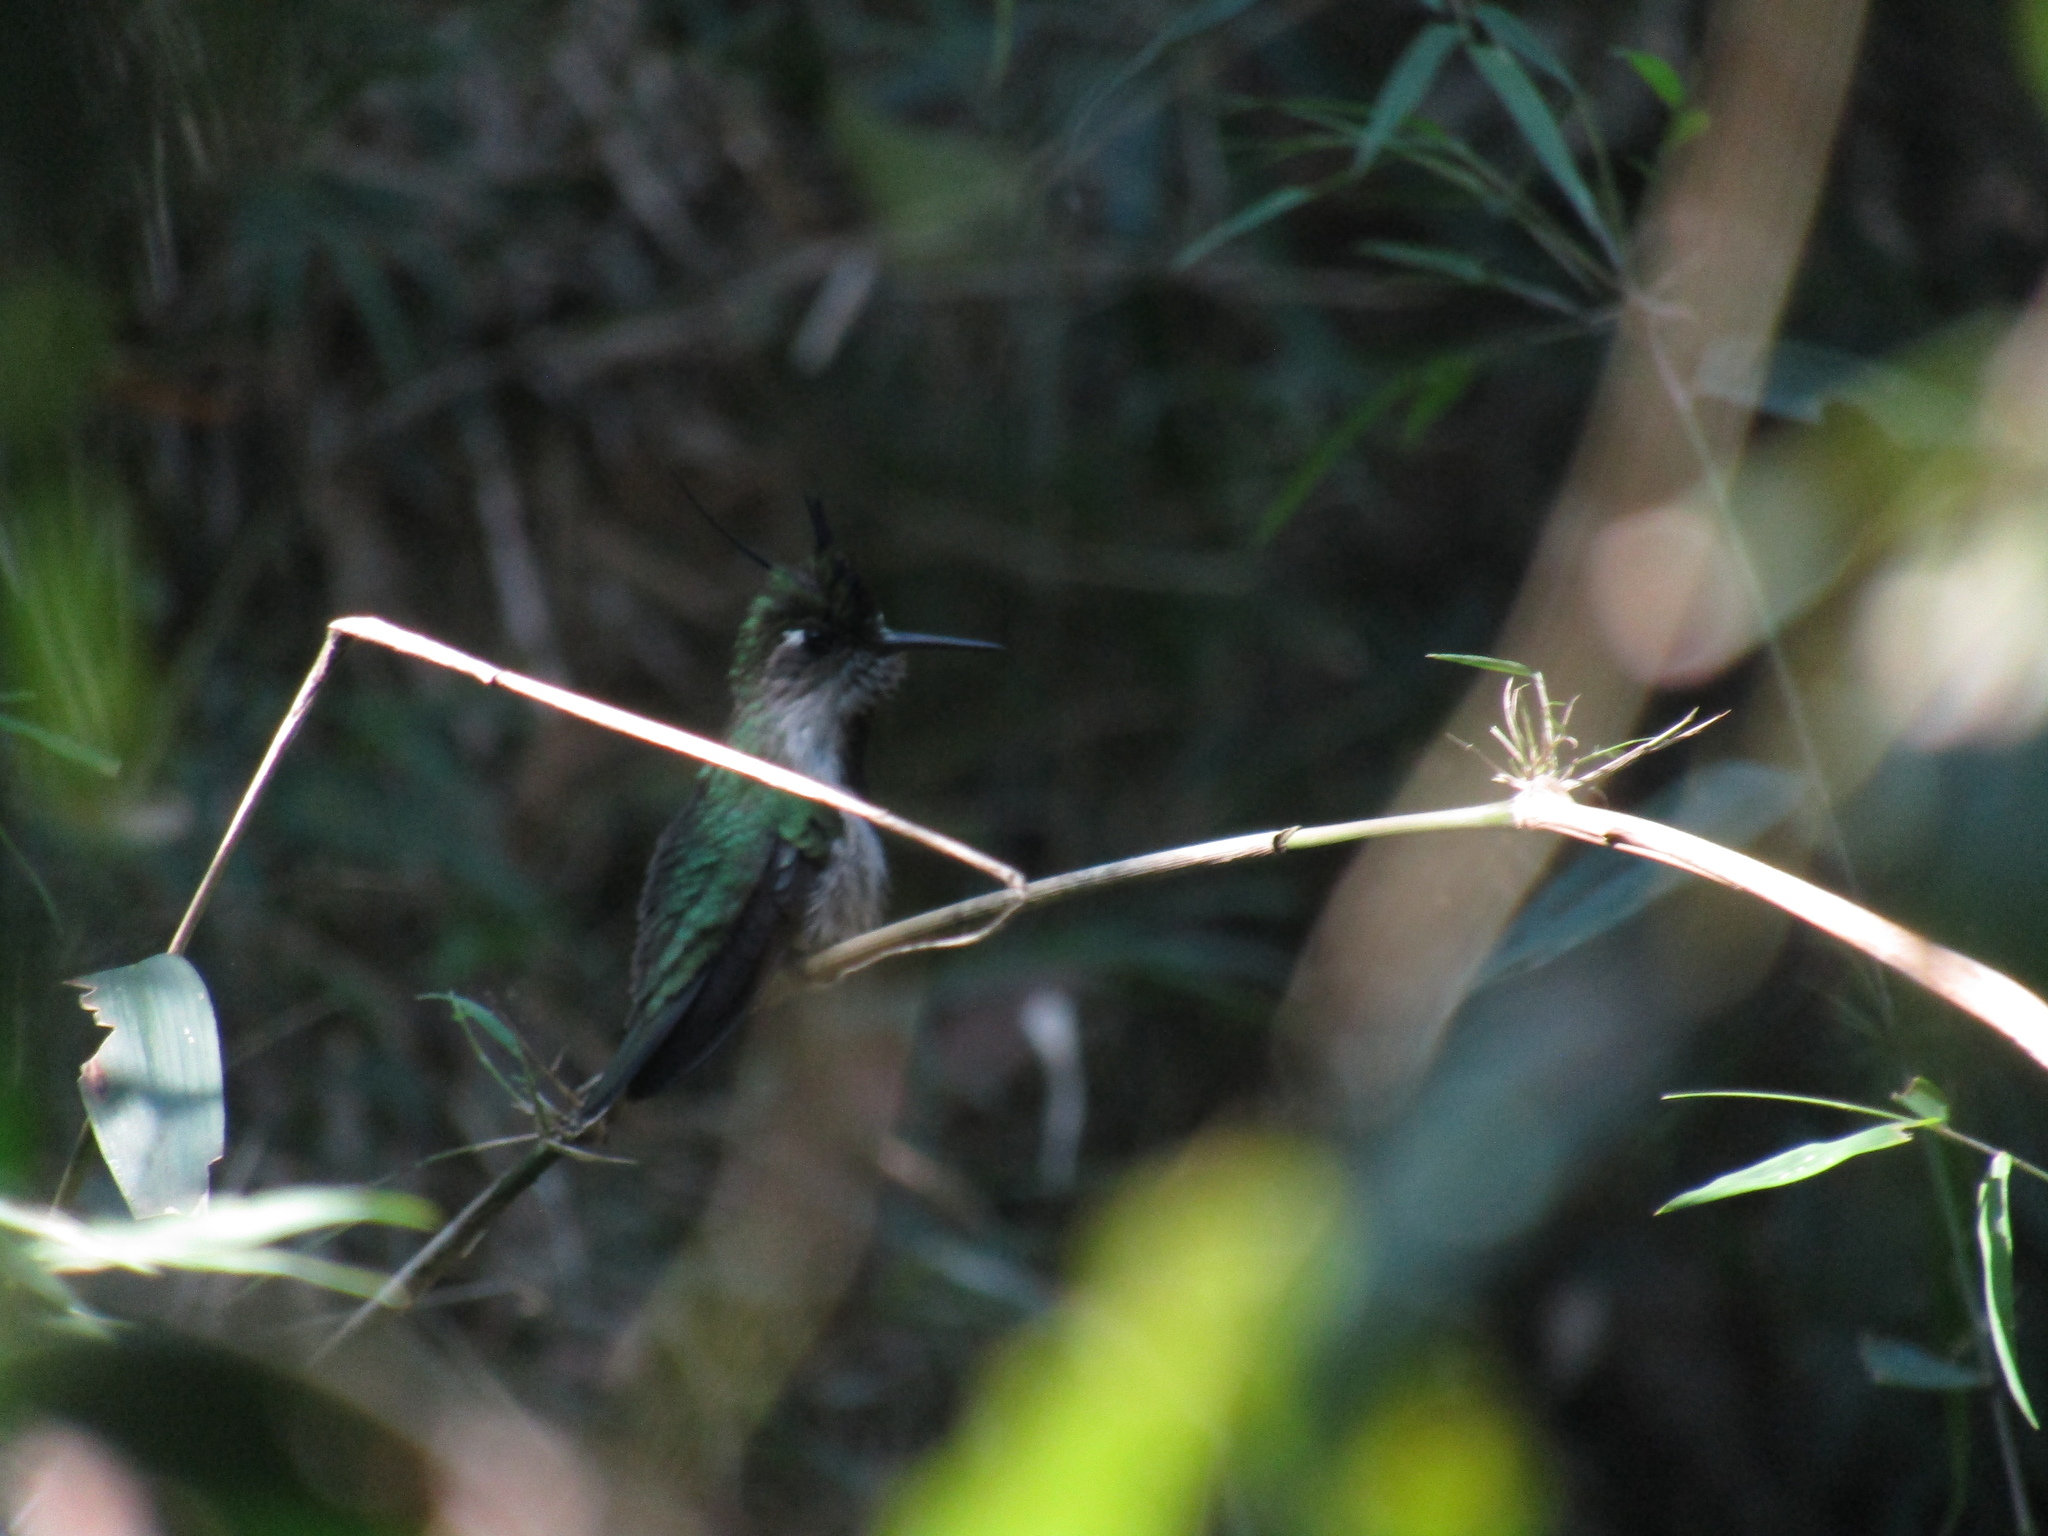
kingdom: Animalia
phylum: Chordata
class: Aves
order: Apodiformes
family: Trochilidae
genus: Stephanoxis
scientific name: Stephanoxis loddigesii
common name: Purple-crowned plovercrest
